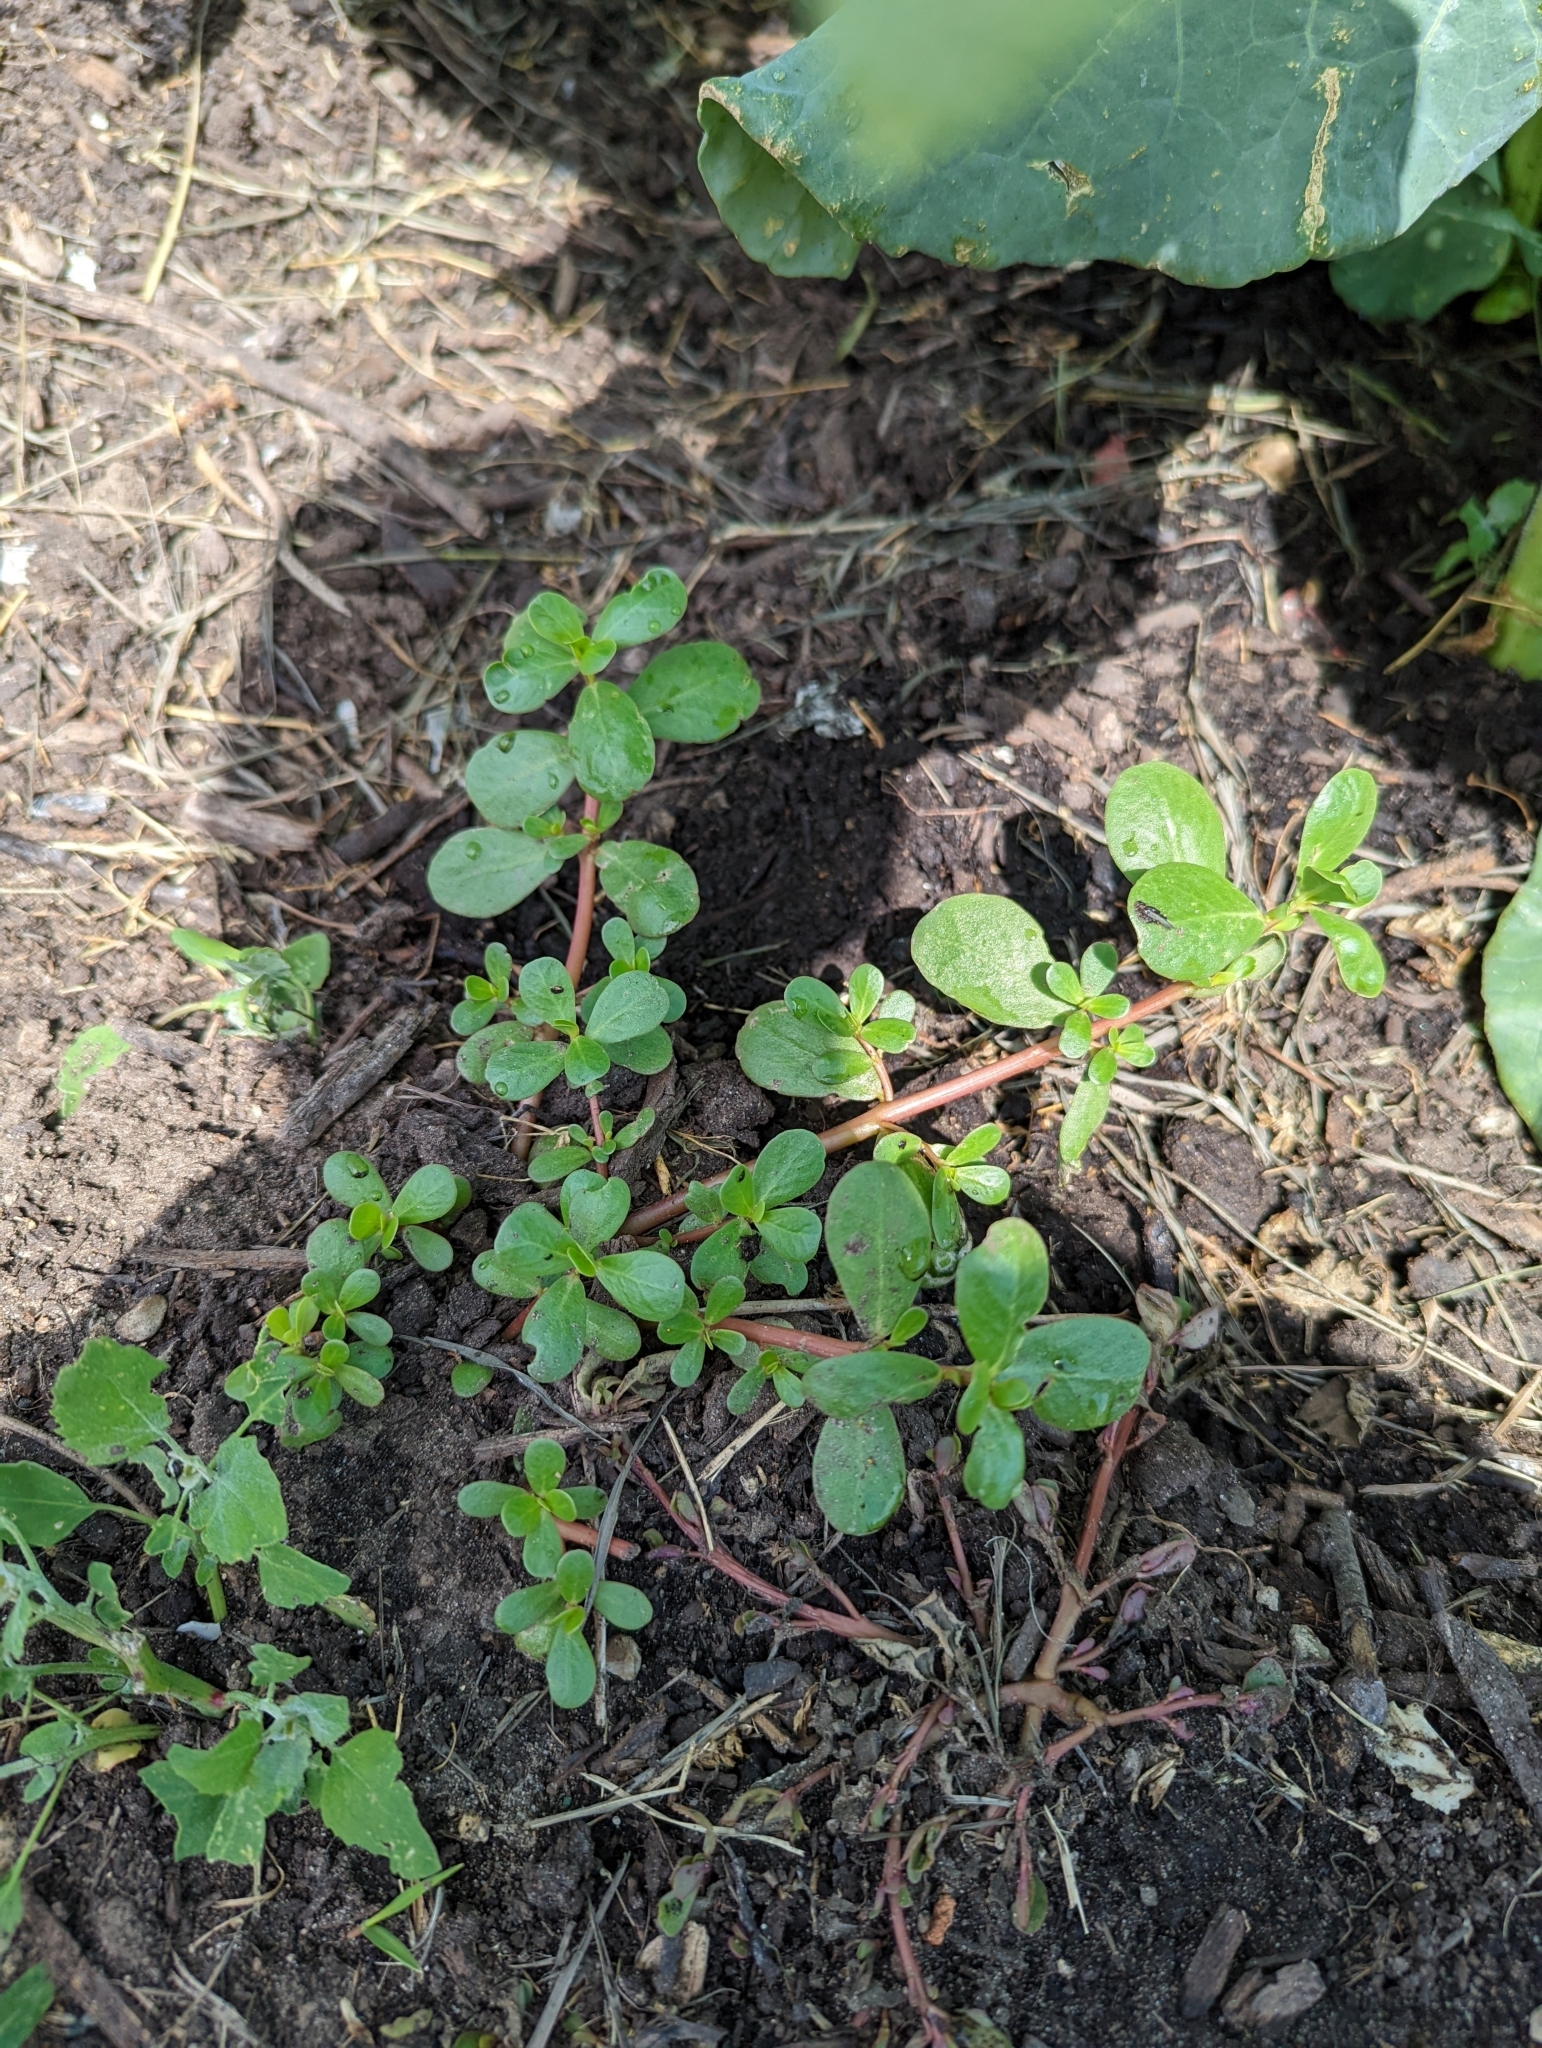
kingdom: Plantae
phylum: Tracheophyta
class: Magnoliopsida
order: Caryophyllales
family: Portulacaceae
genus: Portulaca
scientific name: Portulaca oleracea
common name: Common purslane
